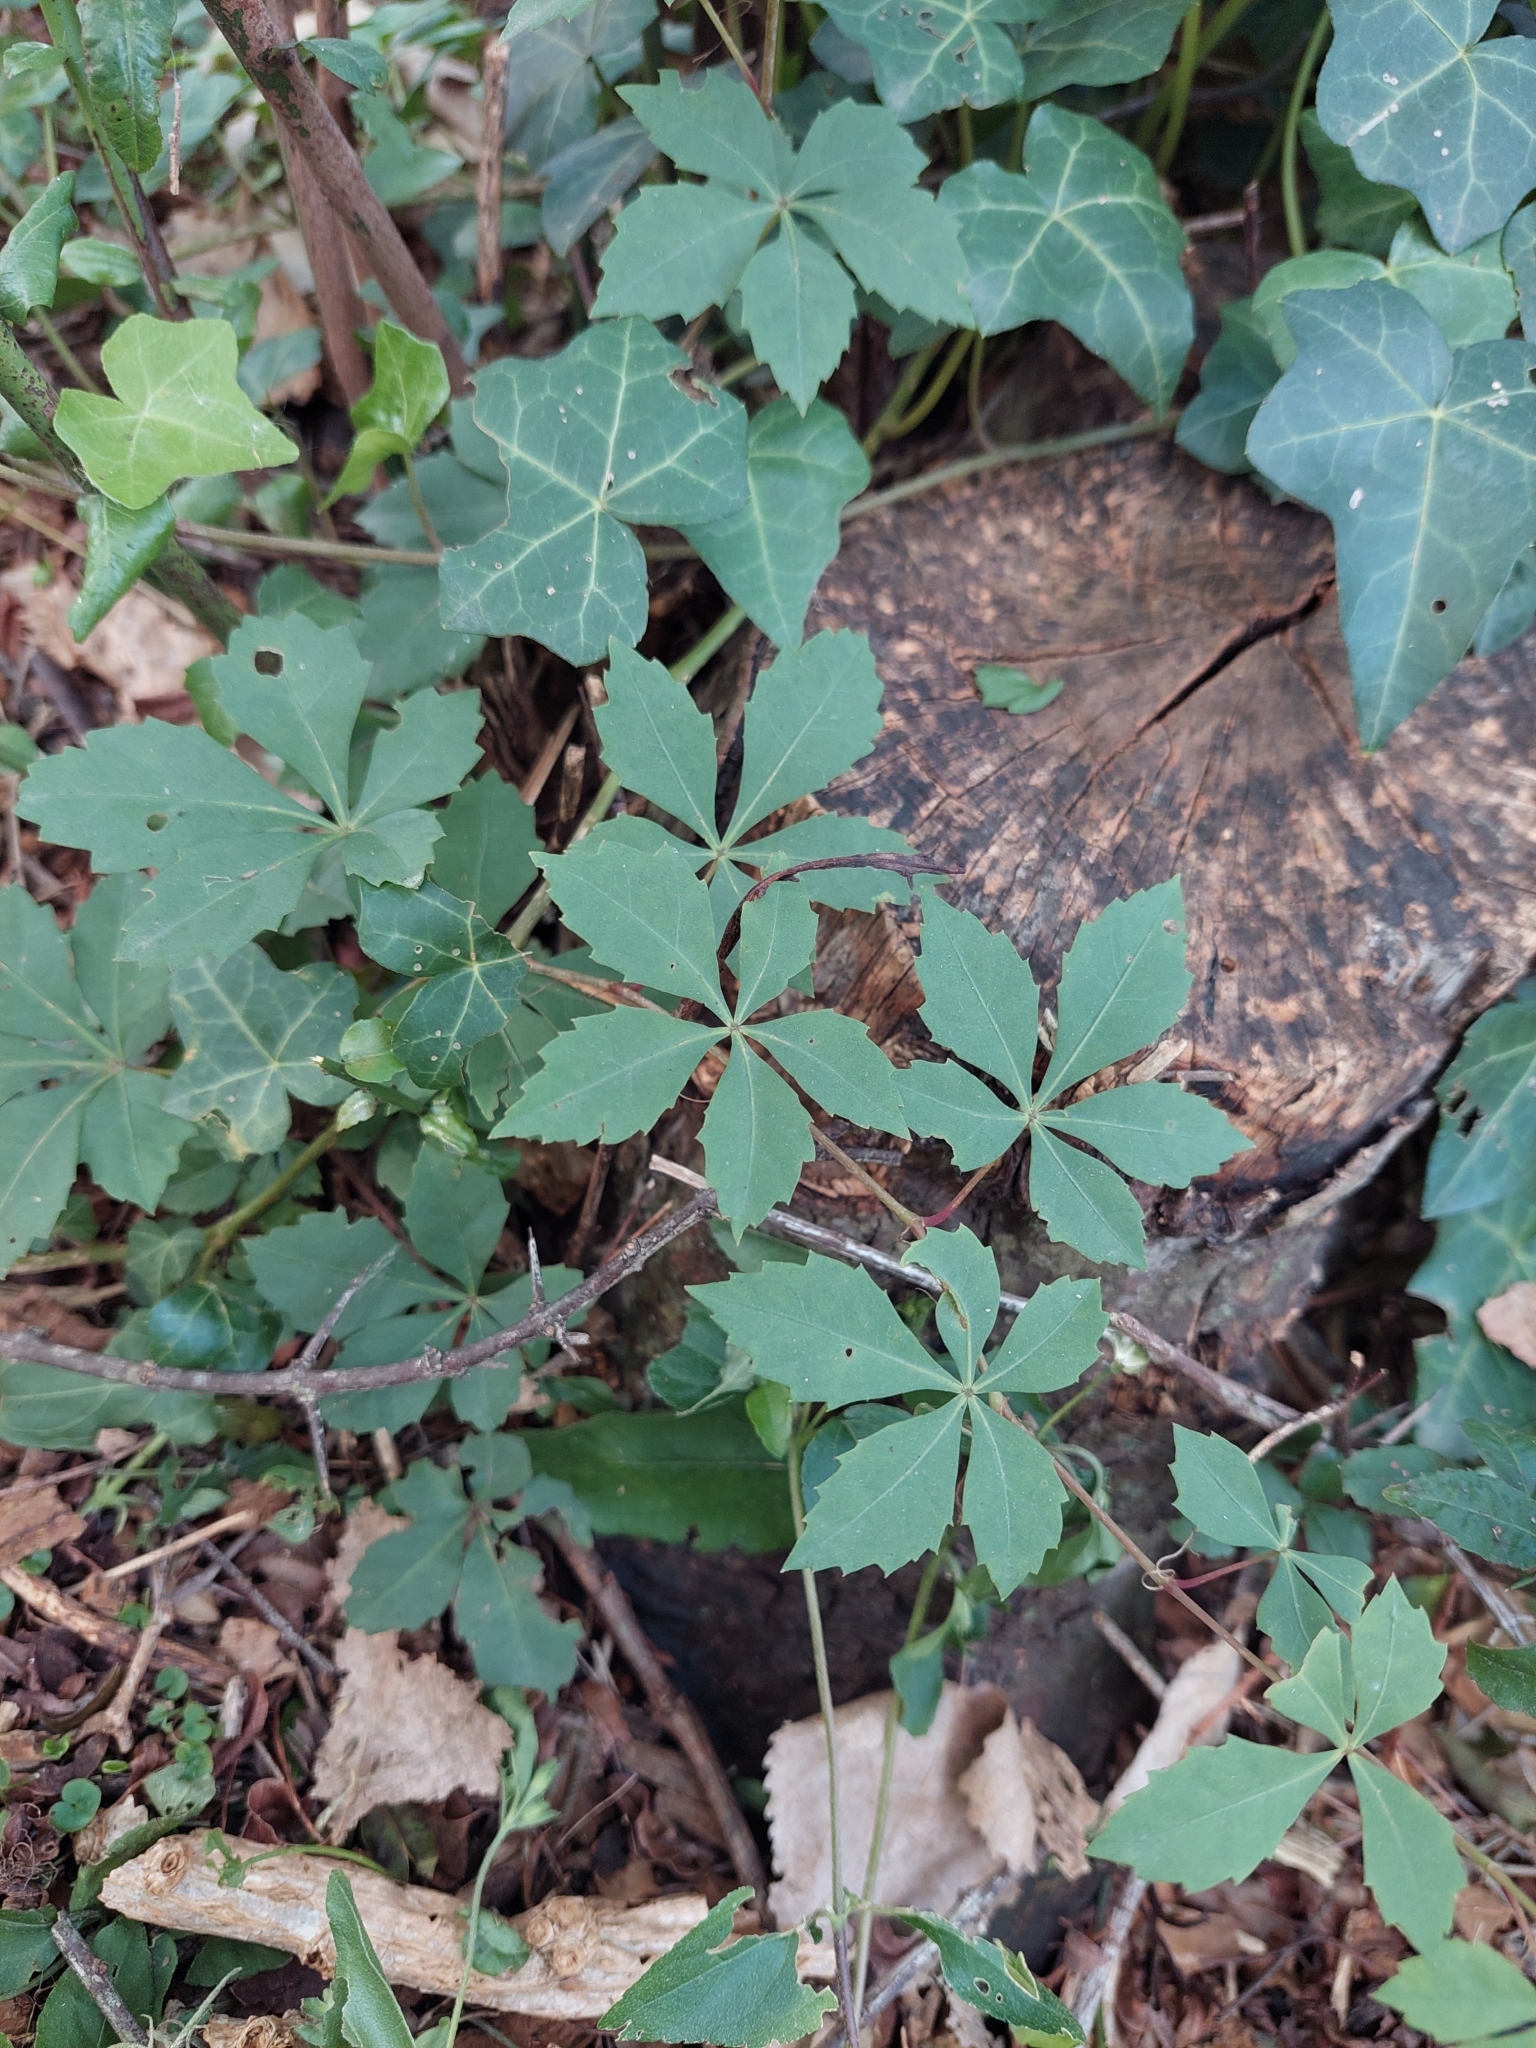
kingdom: Plantae
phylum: Tracheophyta
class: Magnoliopsida
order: Vitales
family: Vitaceae
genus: Clematicissus
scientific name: Clematicissus striata
